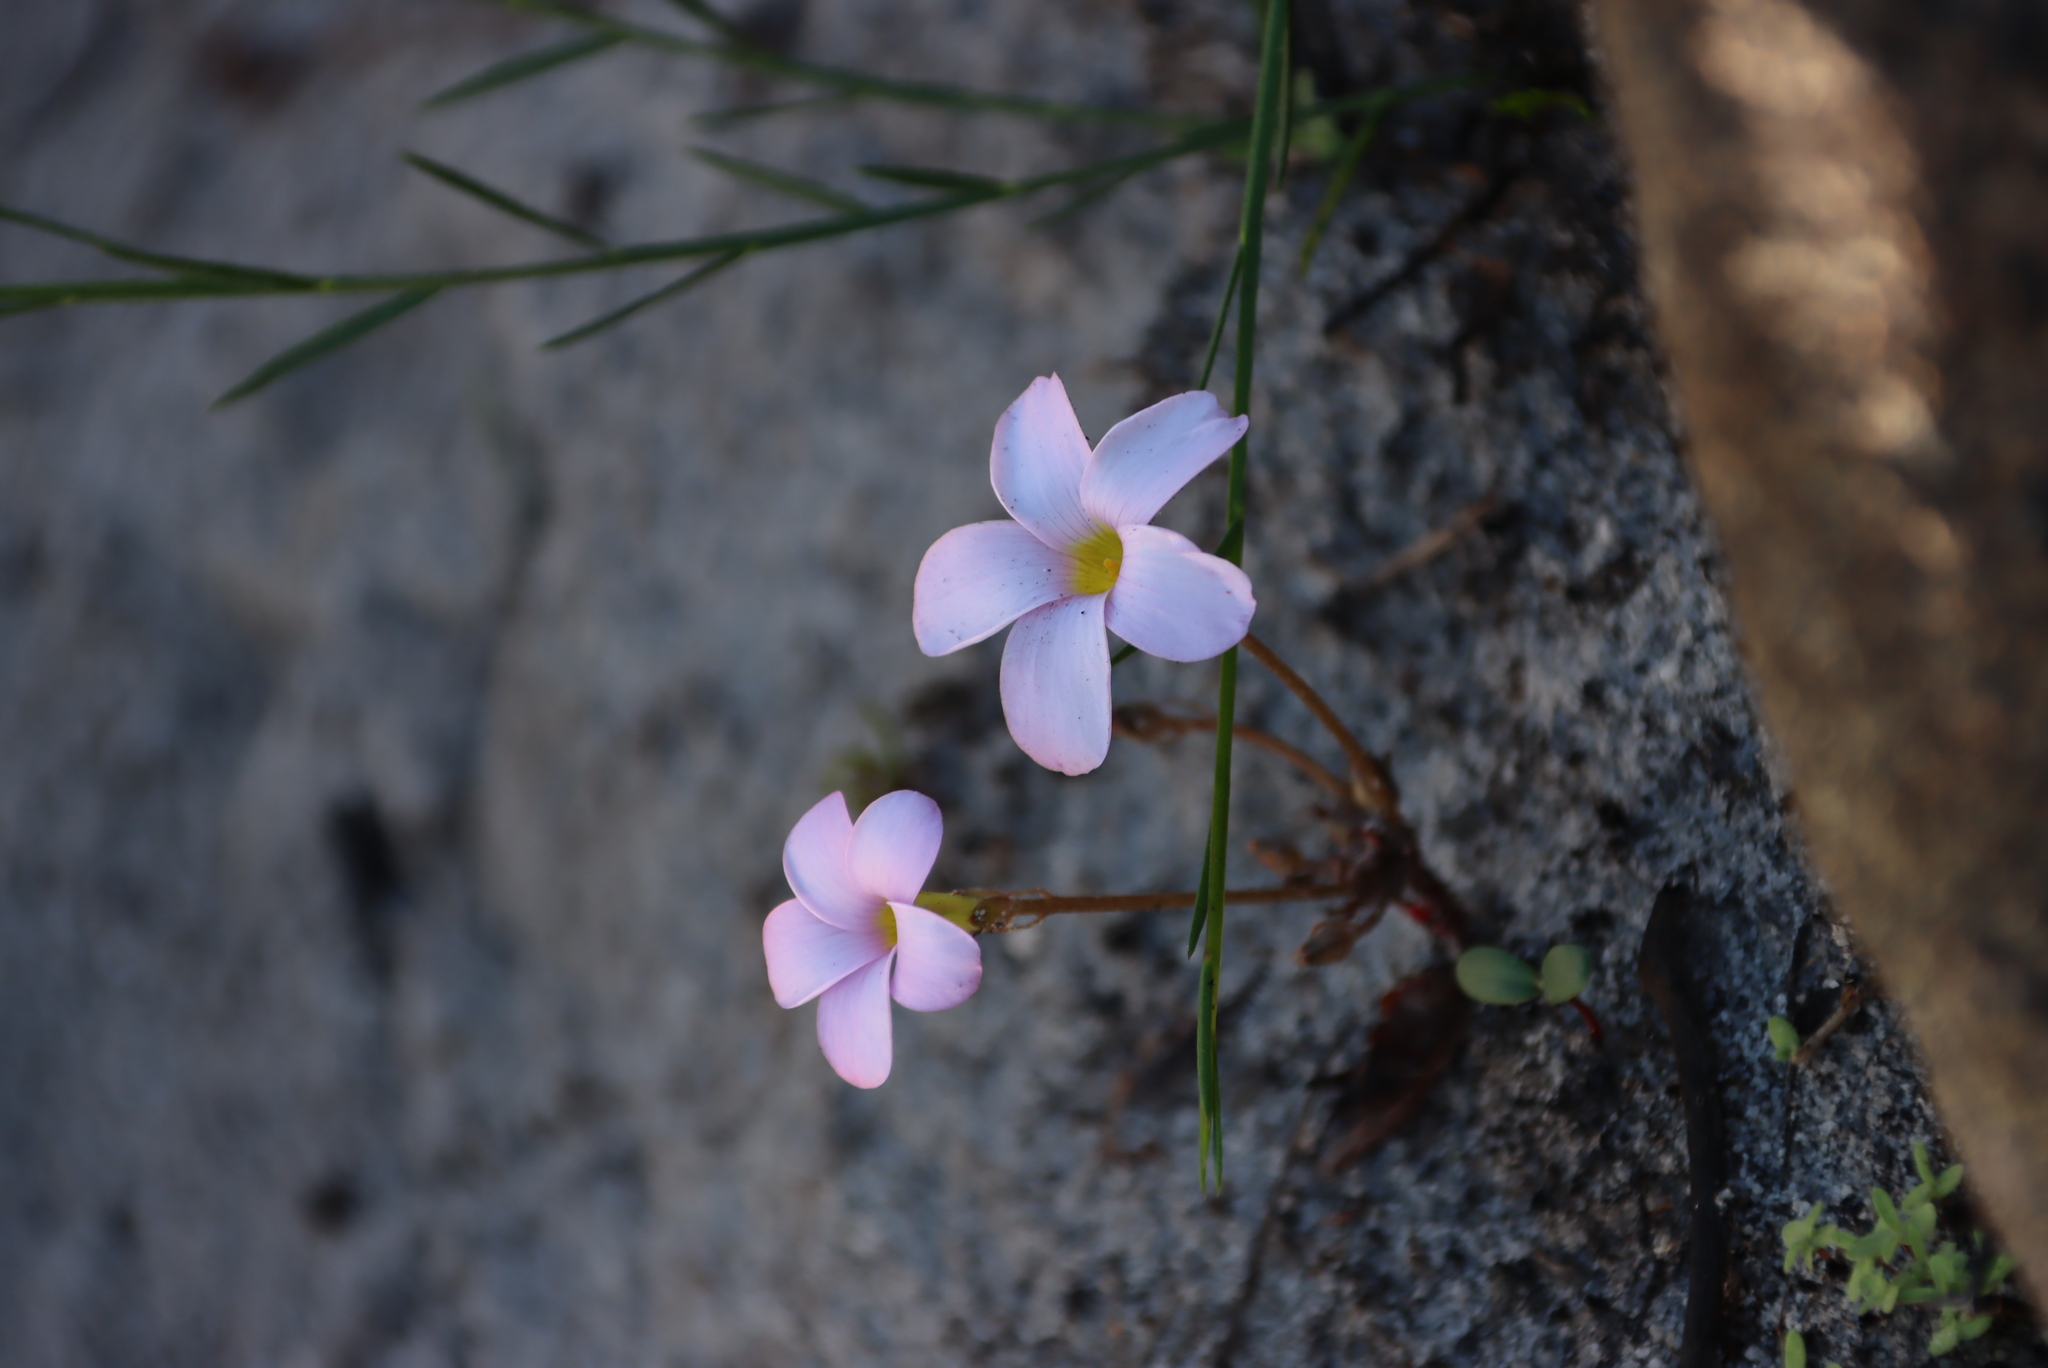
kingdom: Plantae
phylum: Tracheophyta
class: Magnoliopsida
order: Oxalidales
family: Oxalidaceae
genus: Oxalis
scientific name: Oxalis polyphylla
